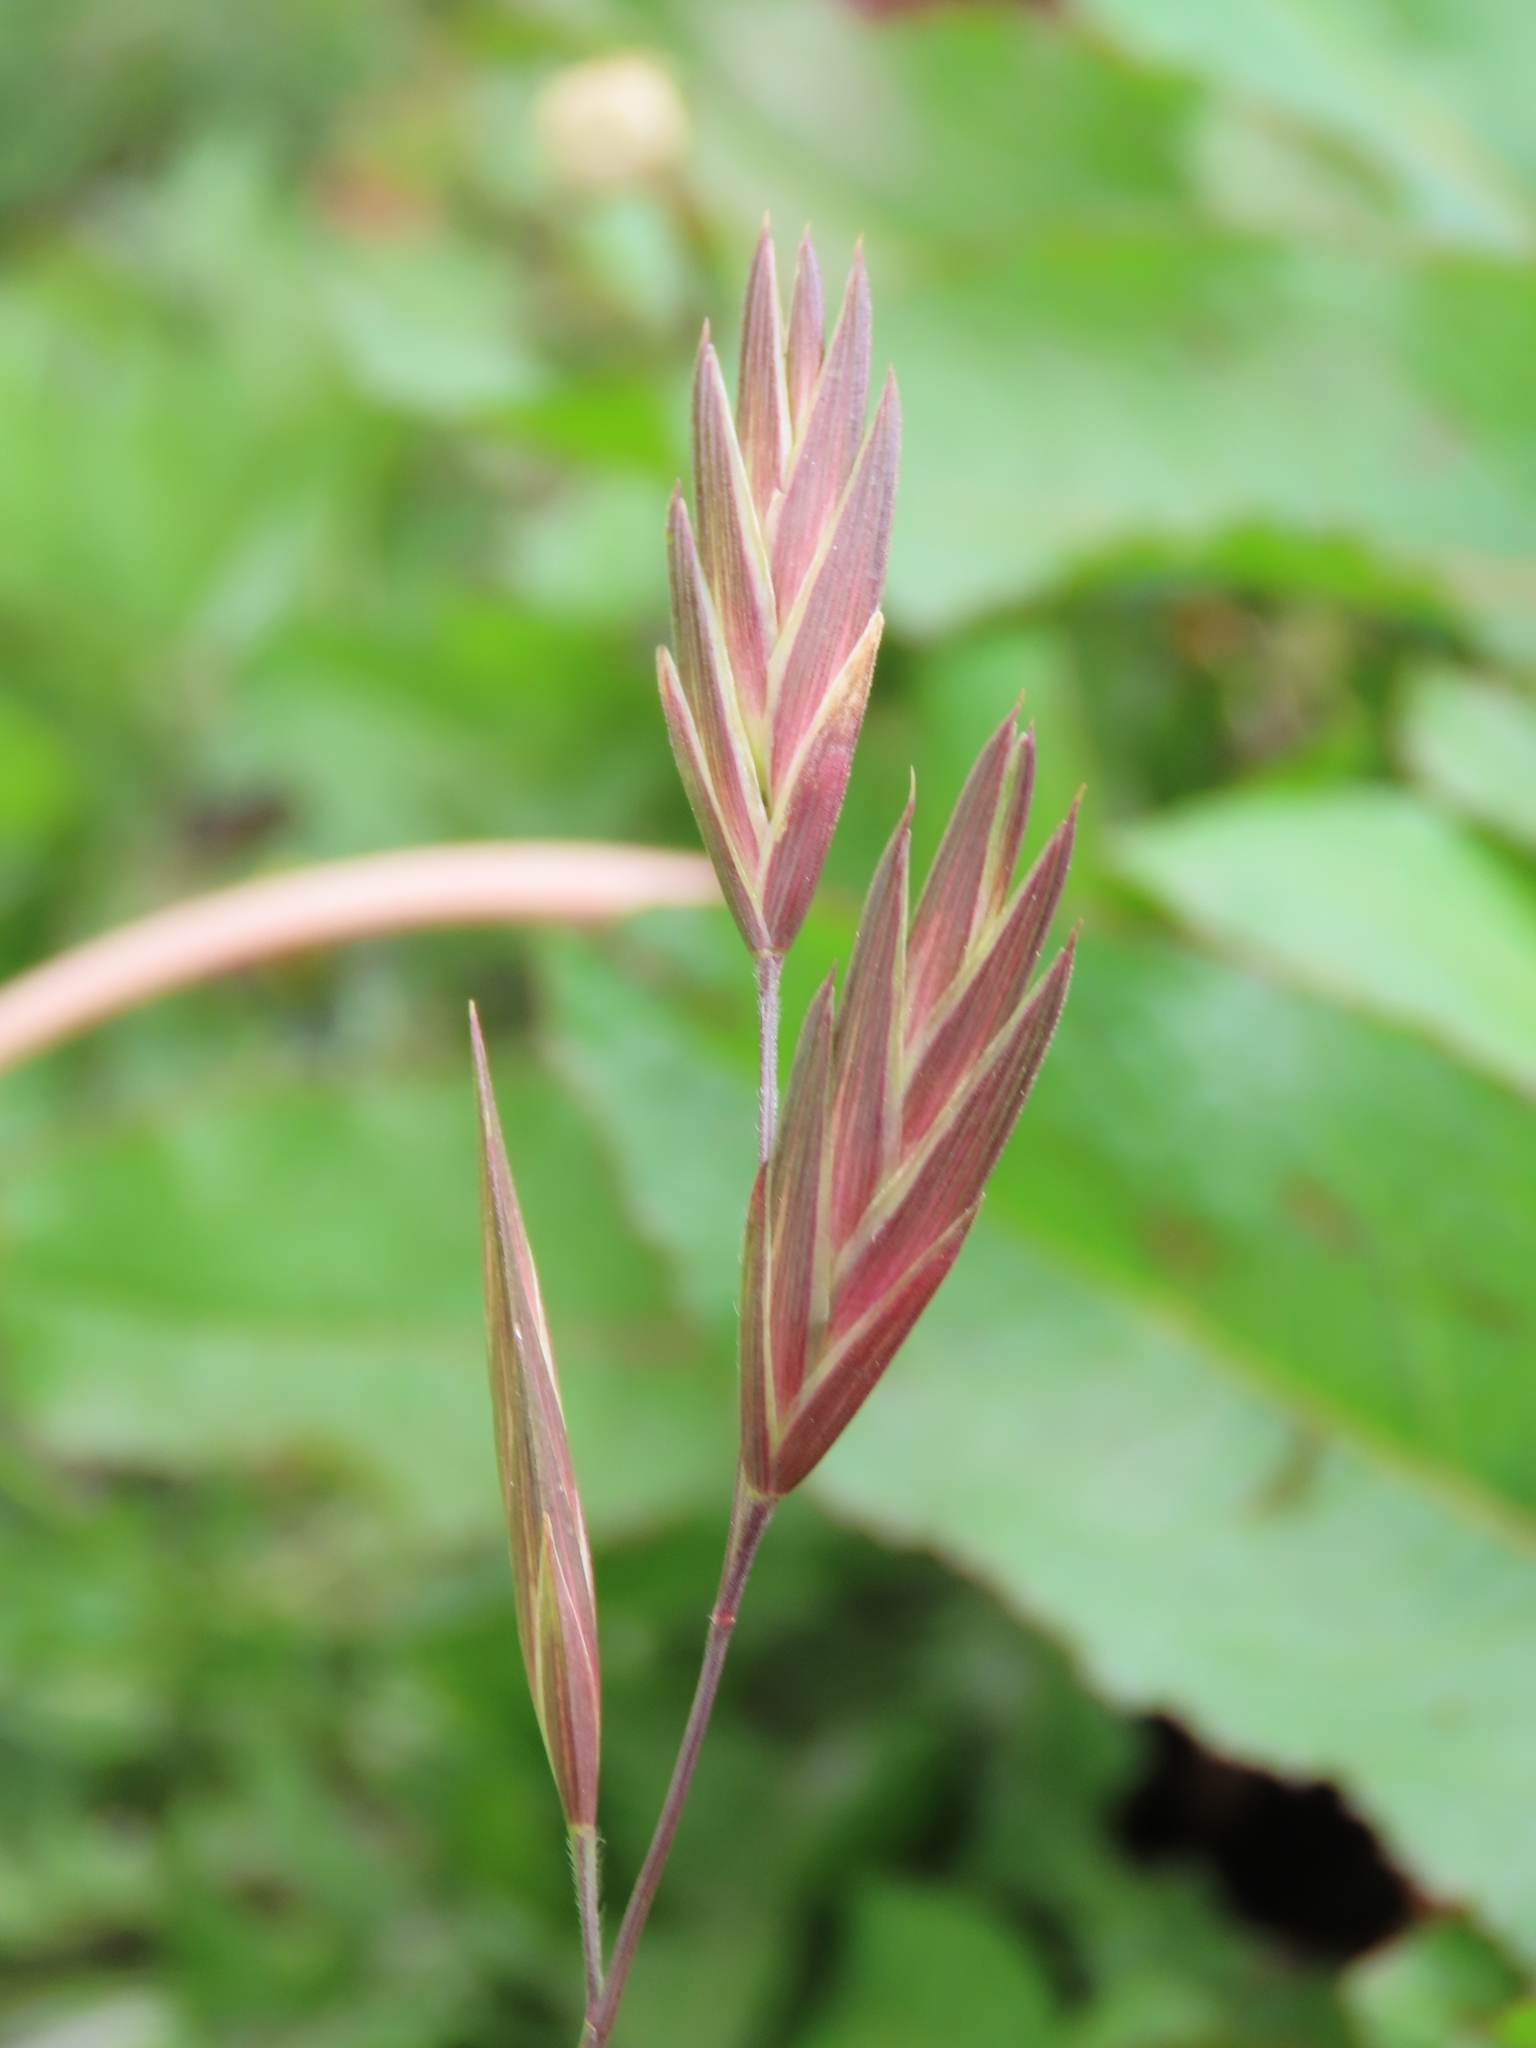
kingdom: Plantae
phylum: Tracheophyta
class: Liliopsida
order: Poales
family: Poaceae
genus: Bromus
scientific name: Bromus catharticus
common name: Rescuegrass
